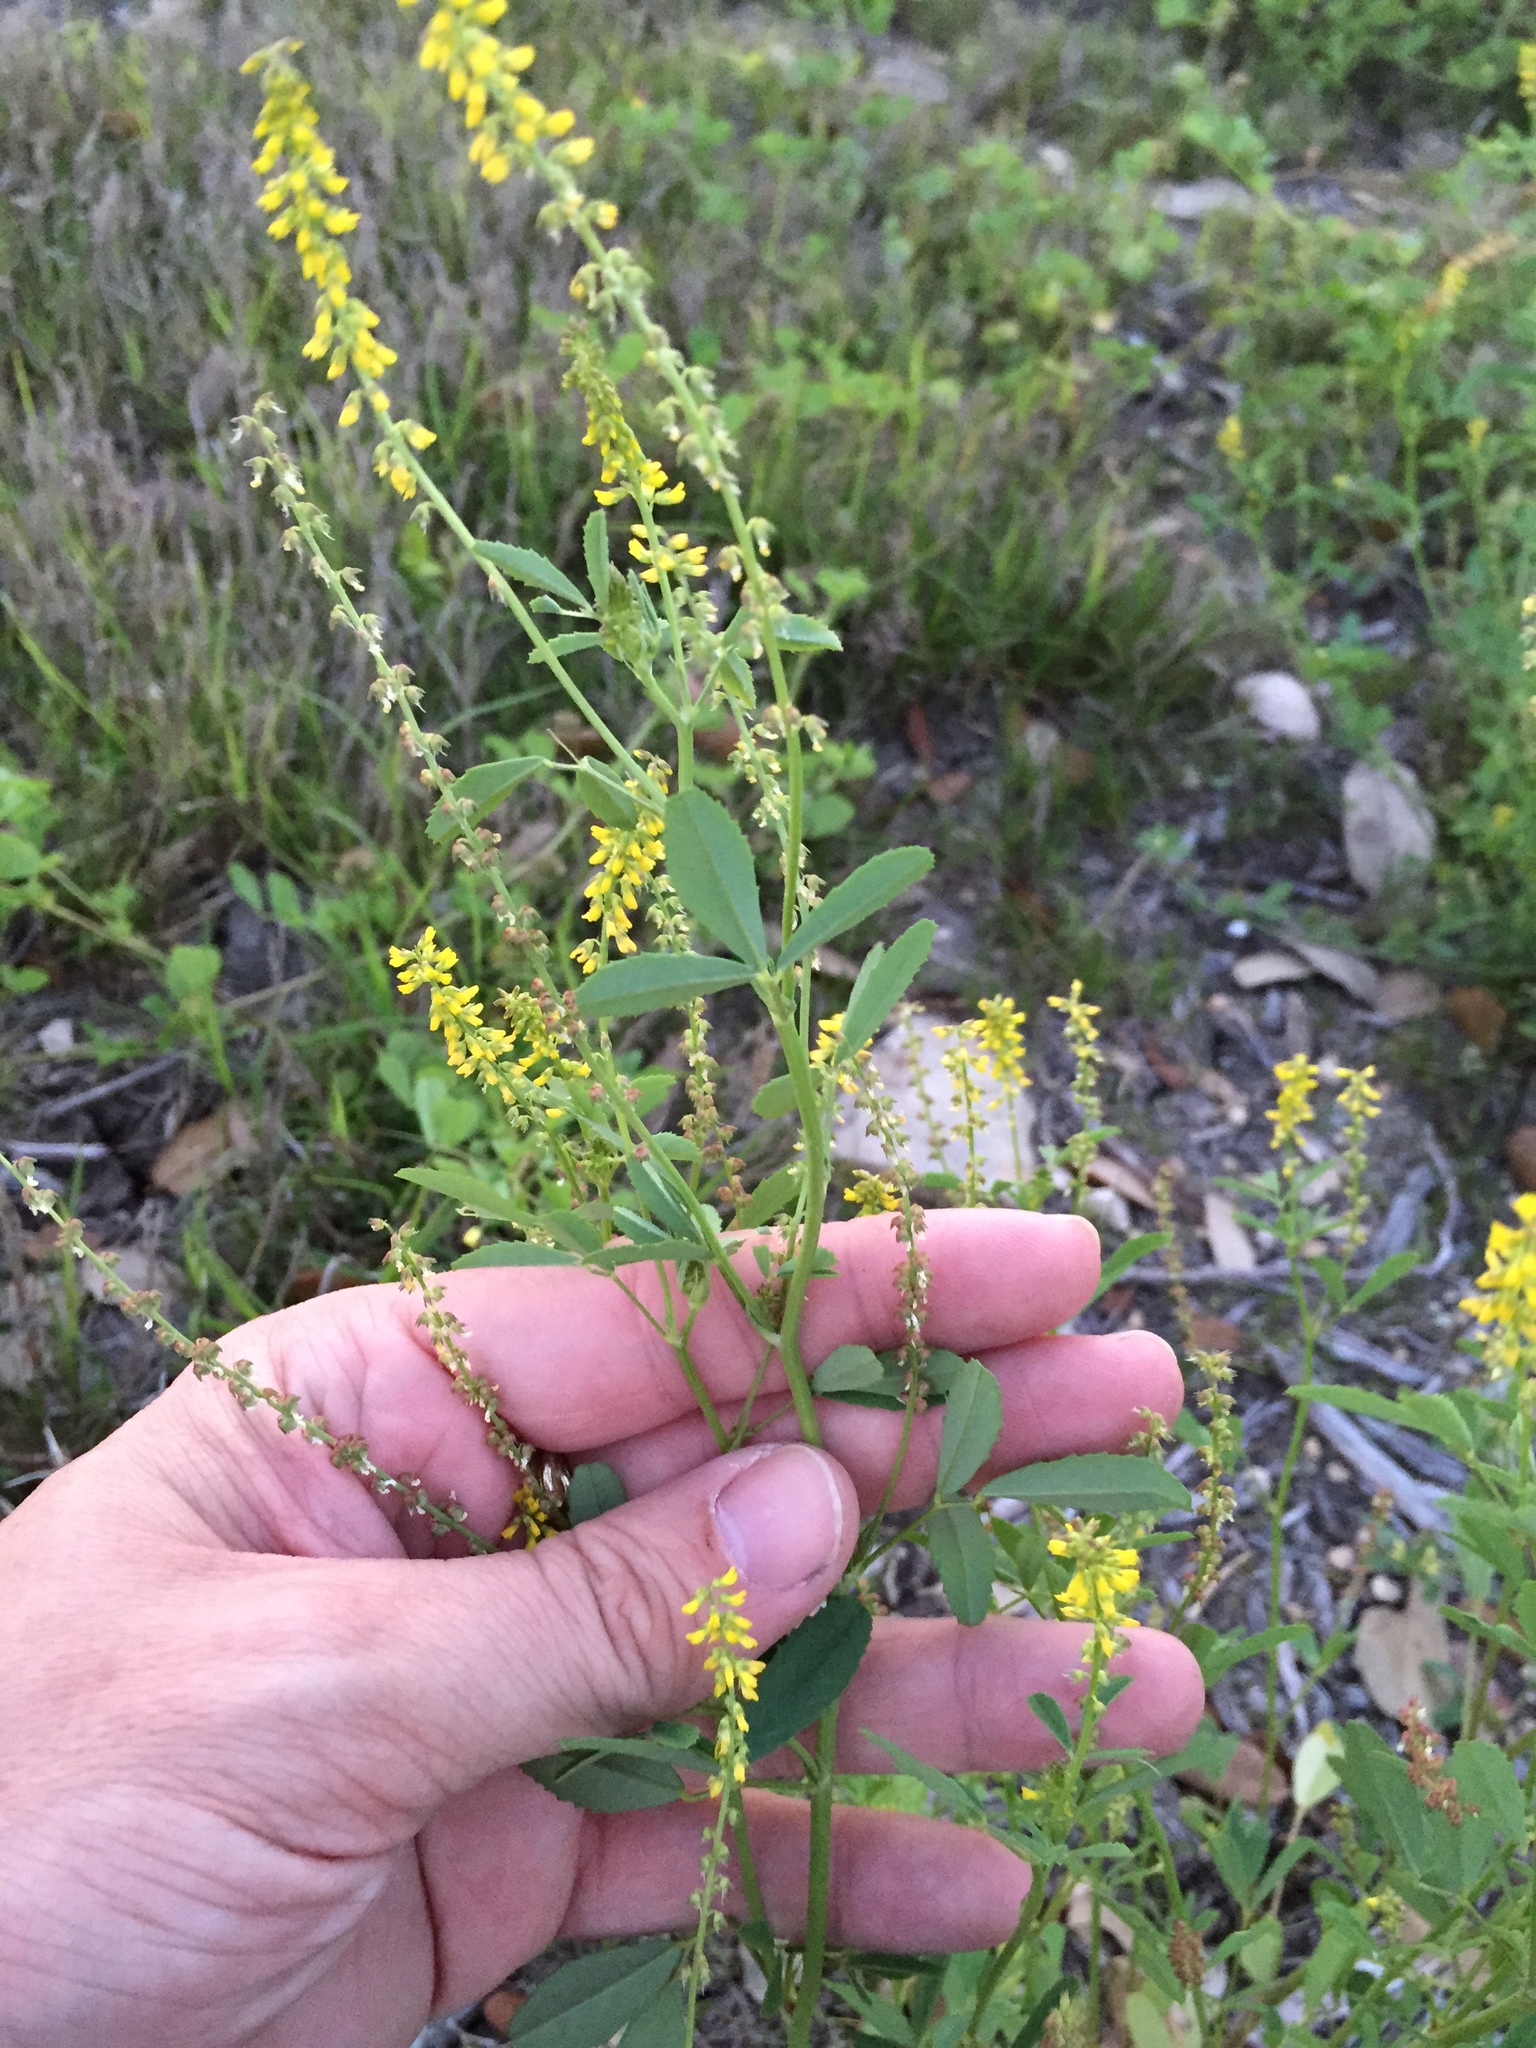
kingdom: Plantae
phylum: Tracheophyta
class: Magnoliopsida
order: Fabales
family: Fabaceae
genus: Melilotus
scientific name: Melilotus indicus
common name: Small melilot
